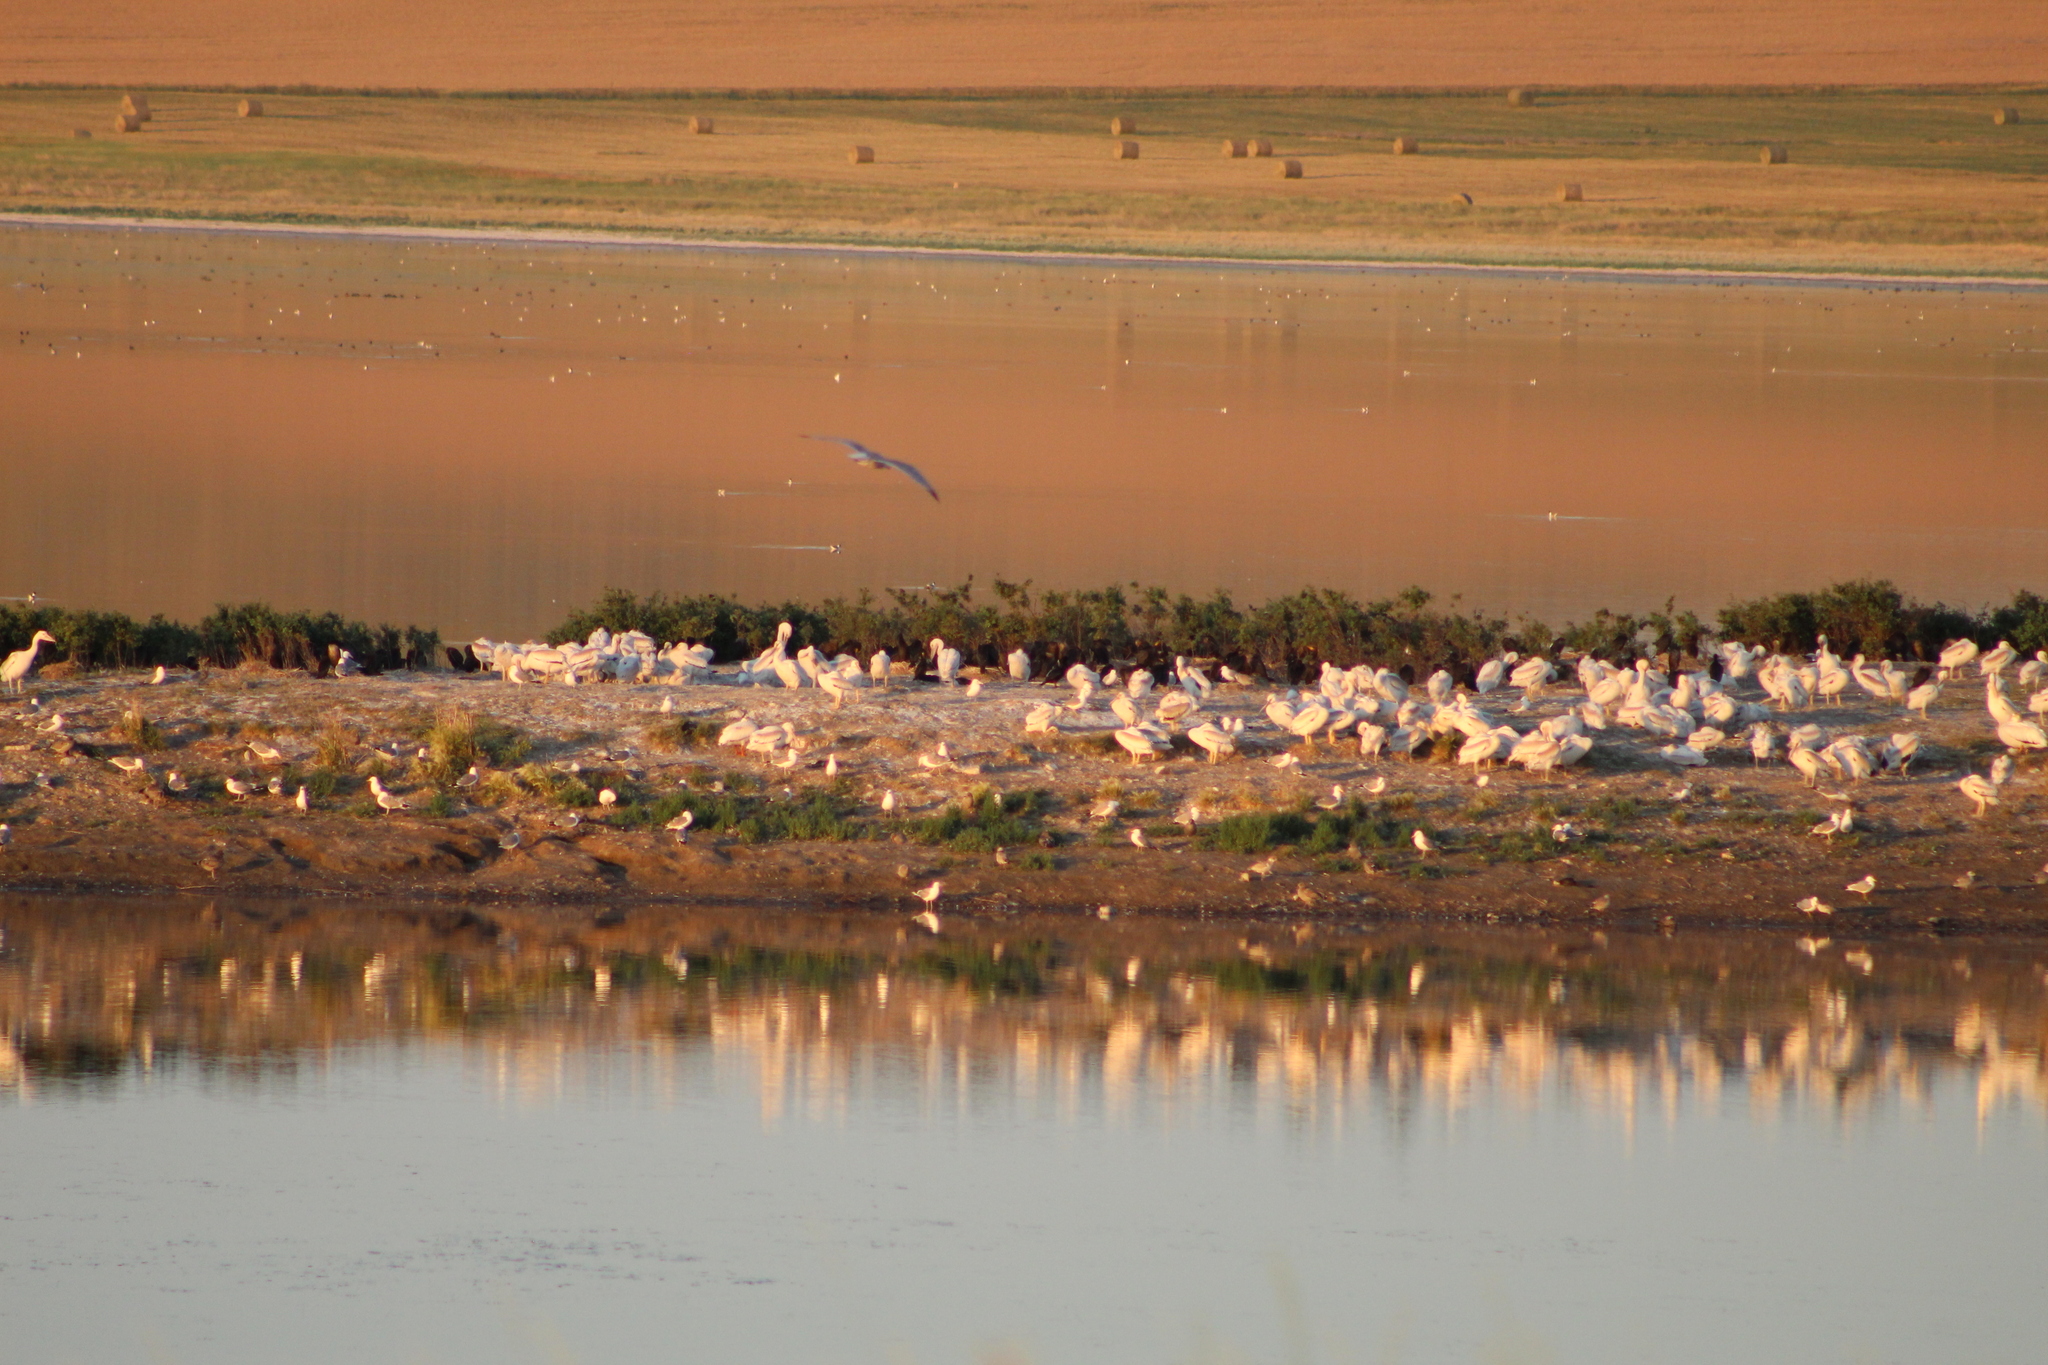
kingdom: Animalia
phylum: Chordata
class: Aves
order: Suliformes
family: Phalacrocoracidae
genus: Phalacrocorax
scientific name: Phalacrocorax auritus
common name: Double-crested cormorant
